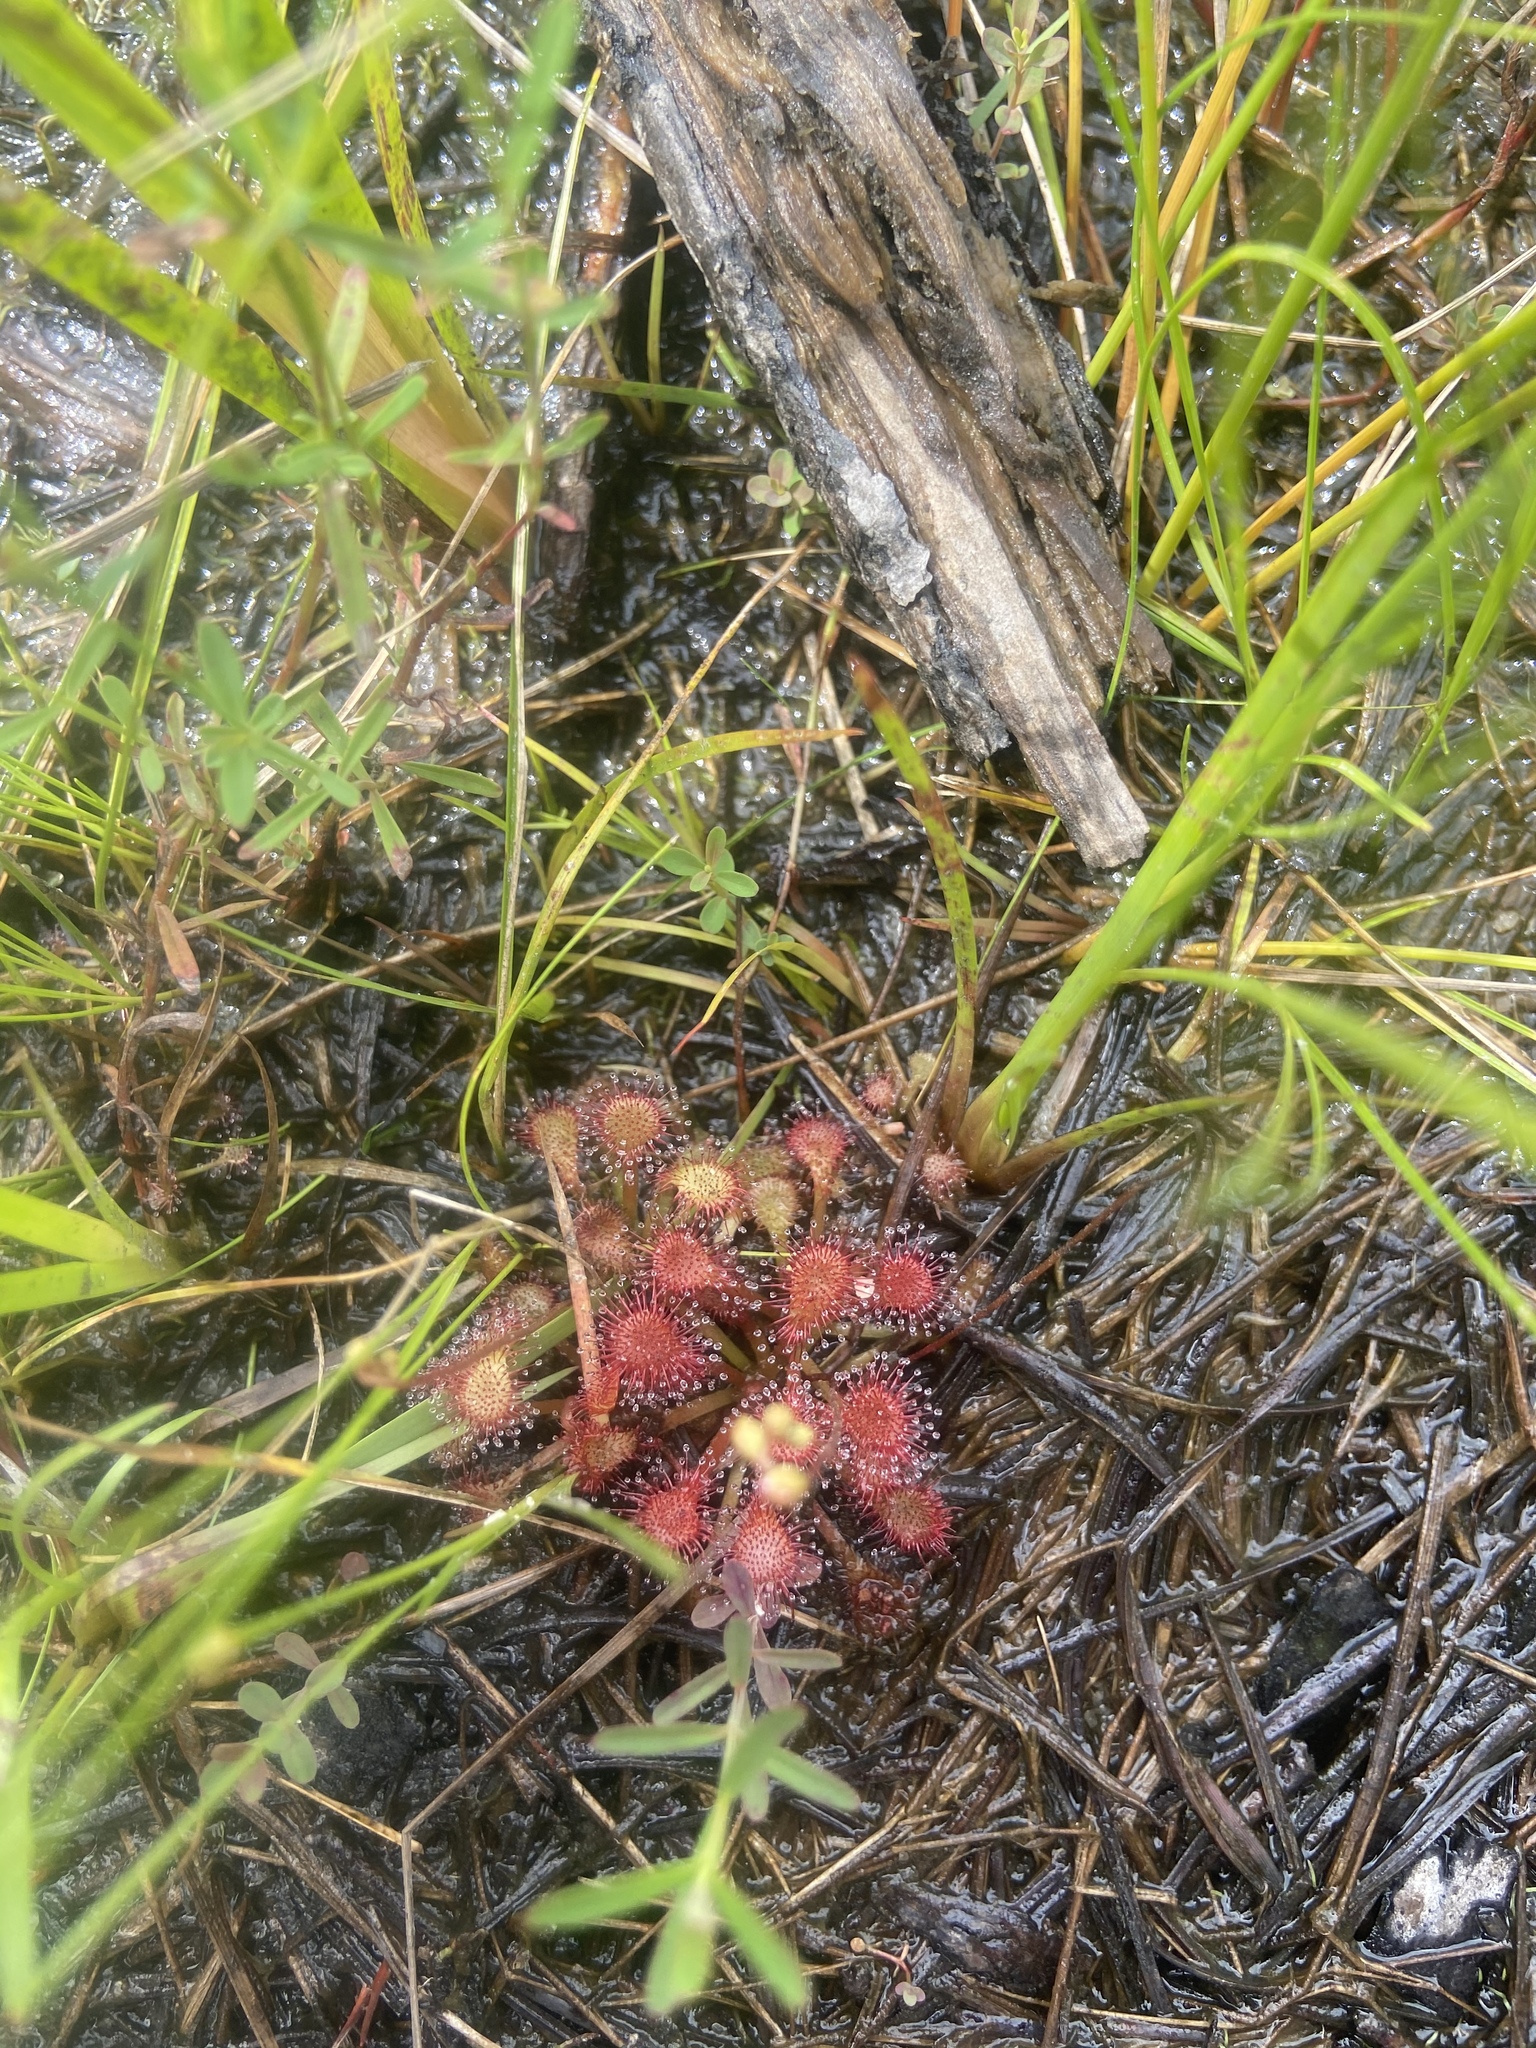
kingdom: Plantae
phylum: Tracheophyta
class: Magnoliopsida
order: Caryophyllales
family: Droseraceae
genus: Drosera
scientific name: Drosera capillaris
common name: Pink sundew
